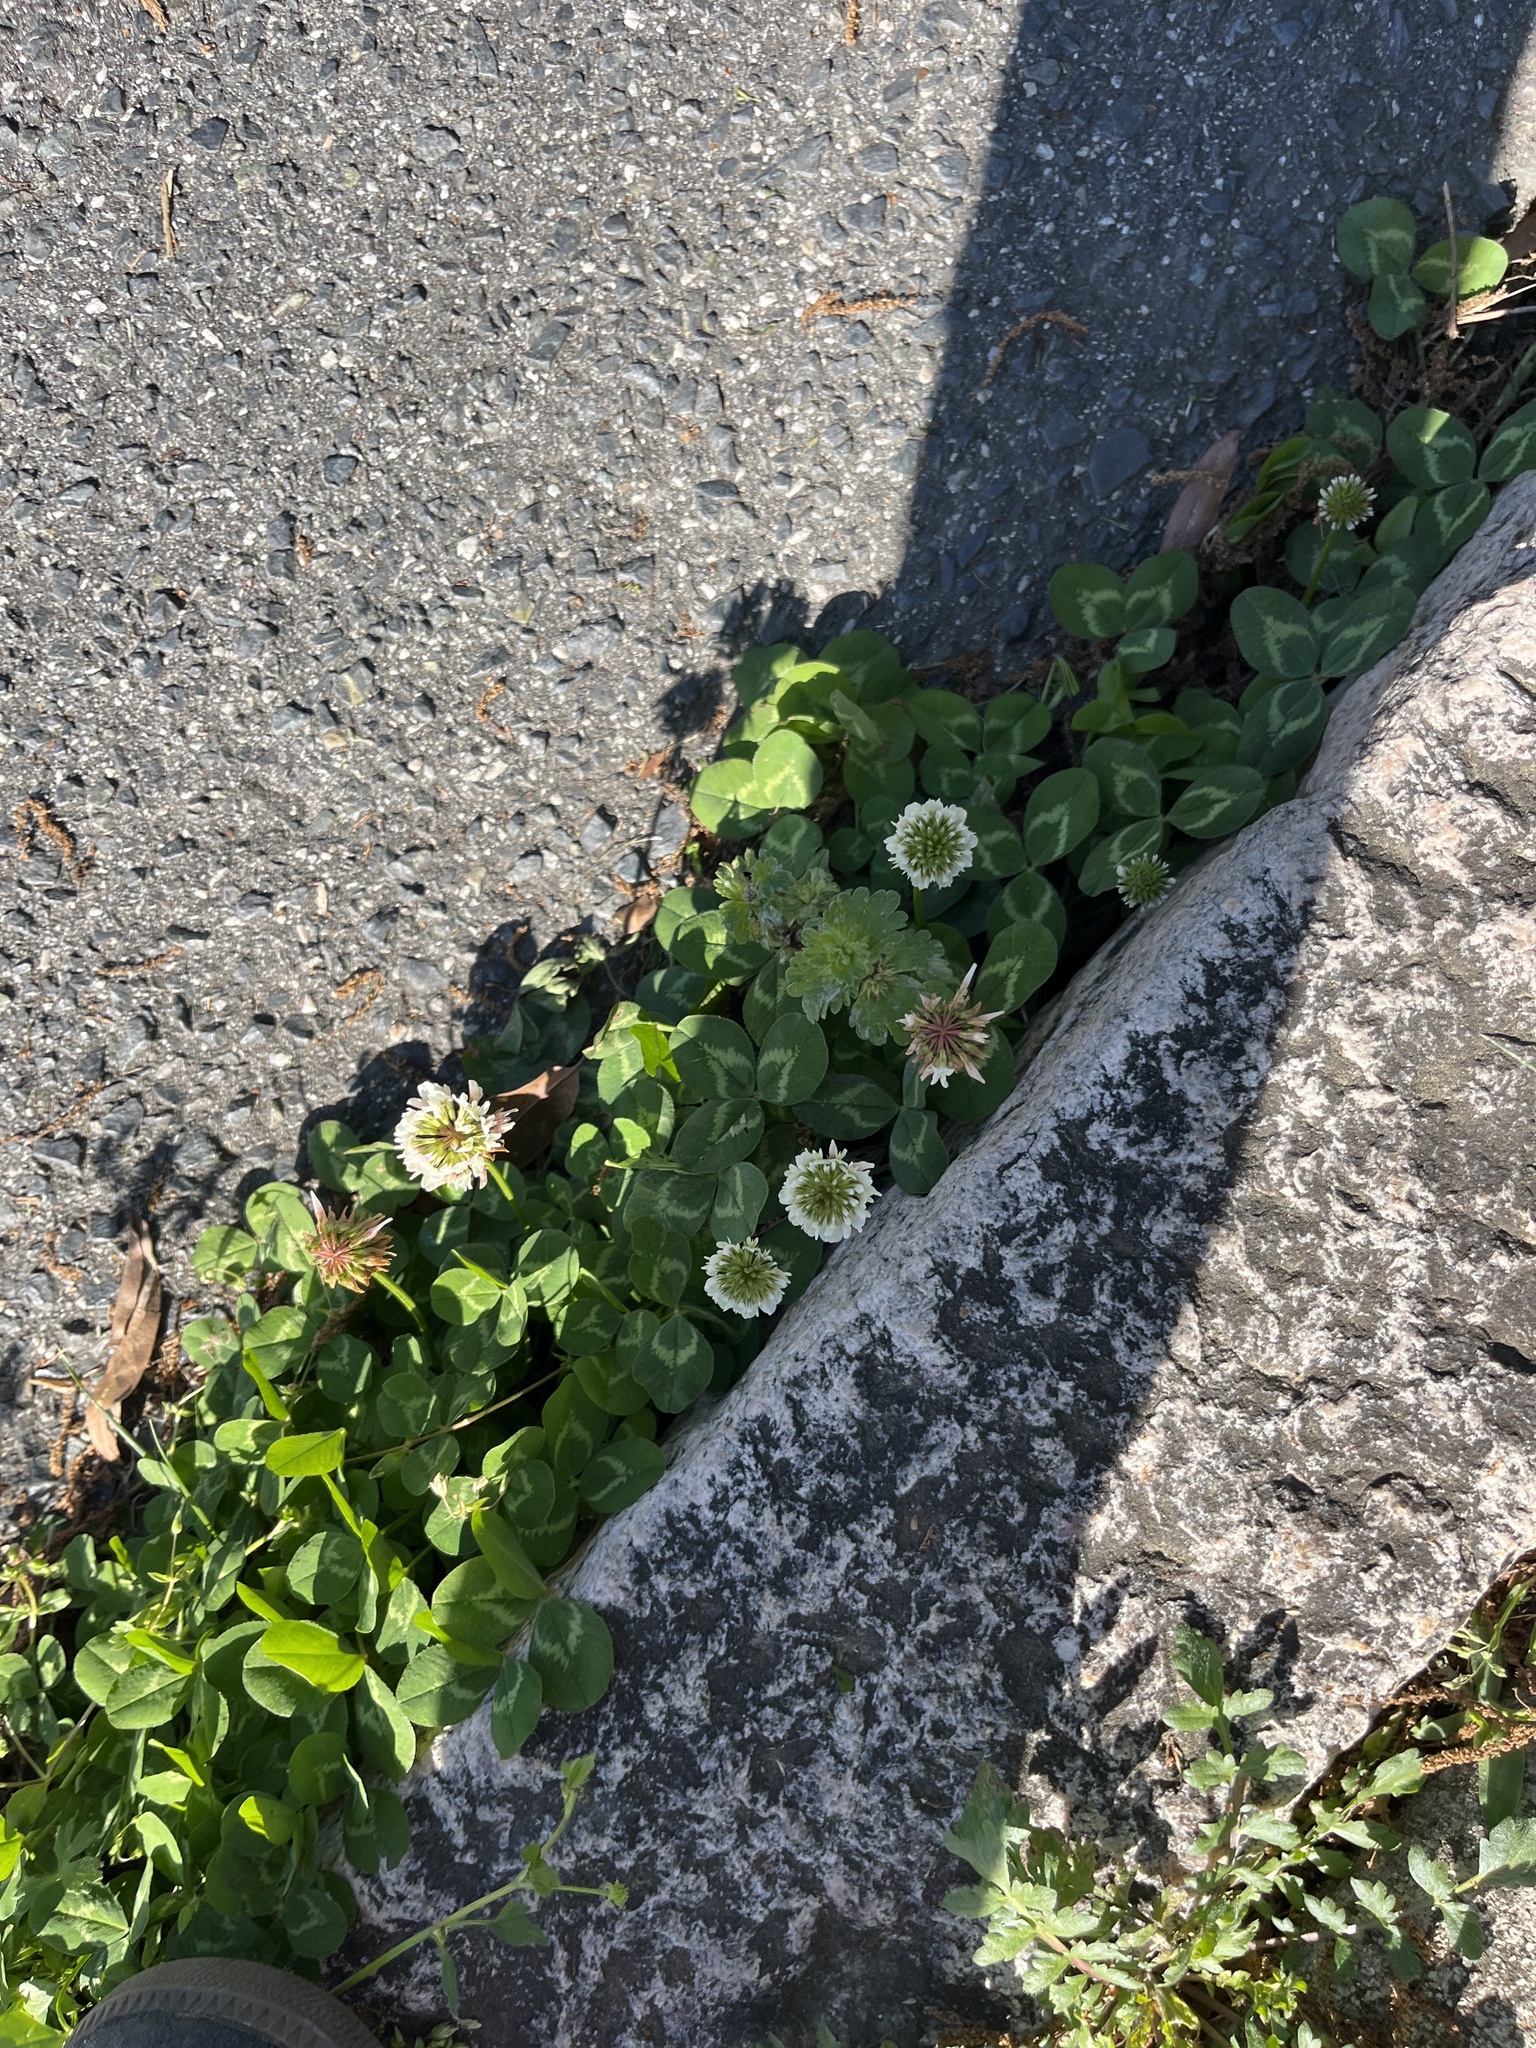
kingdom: Plantae
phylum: Tracheophyta
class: Magnoliopsida
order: Fabales
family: Fabaceae
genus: Trifolium
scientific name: Trifolium repens
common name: White clover
